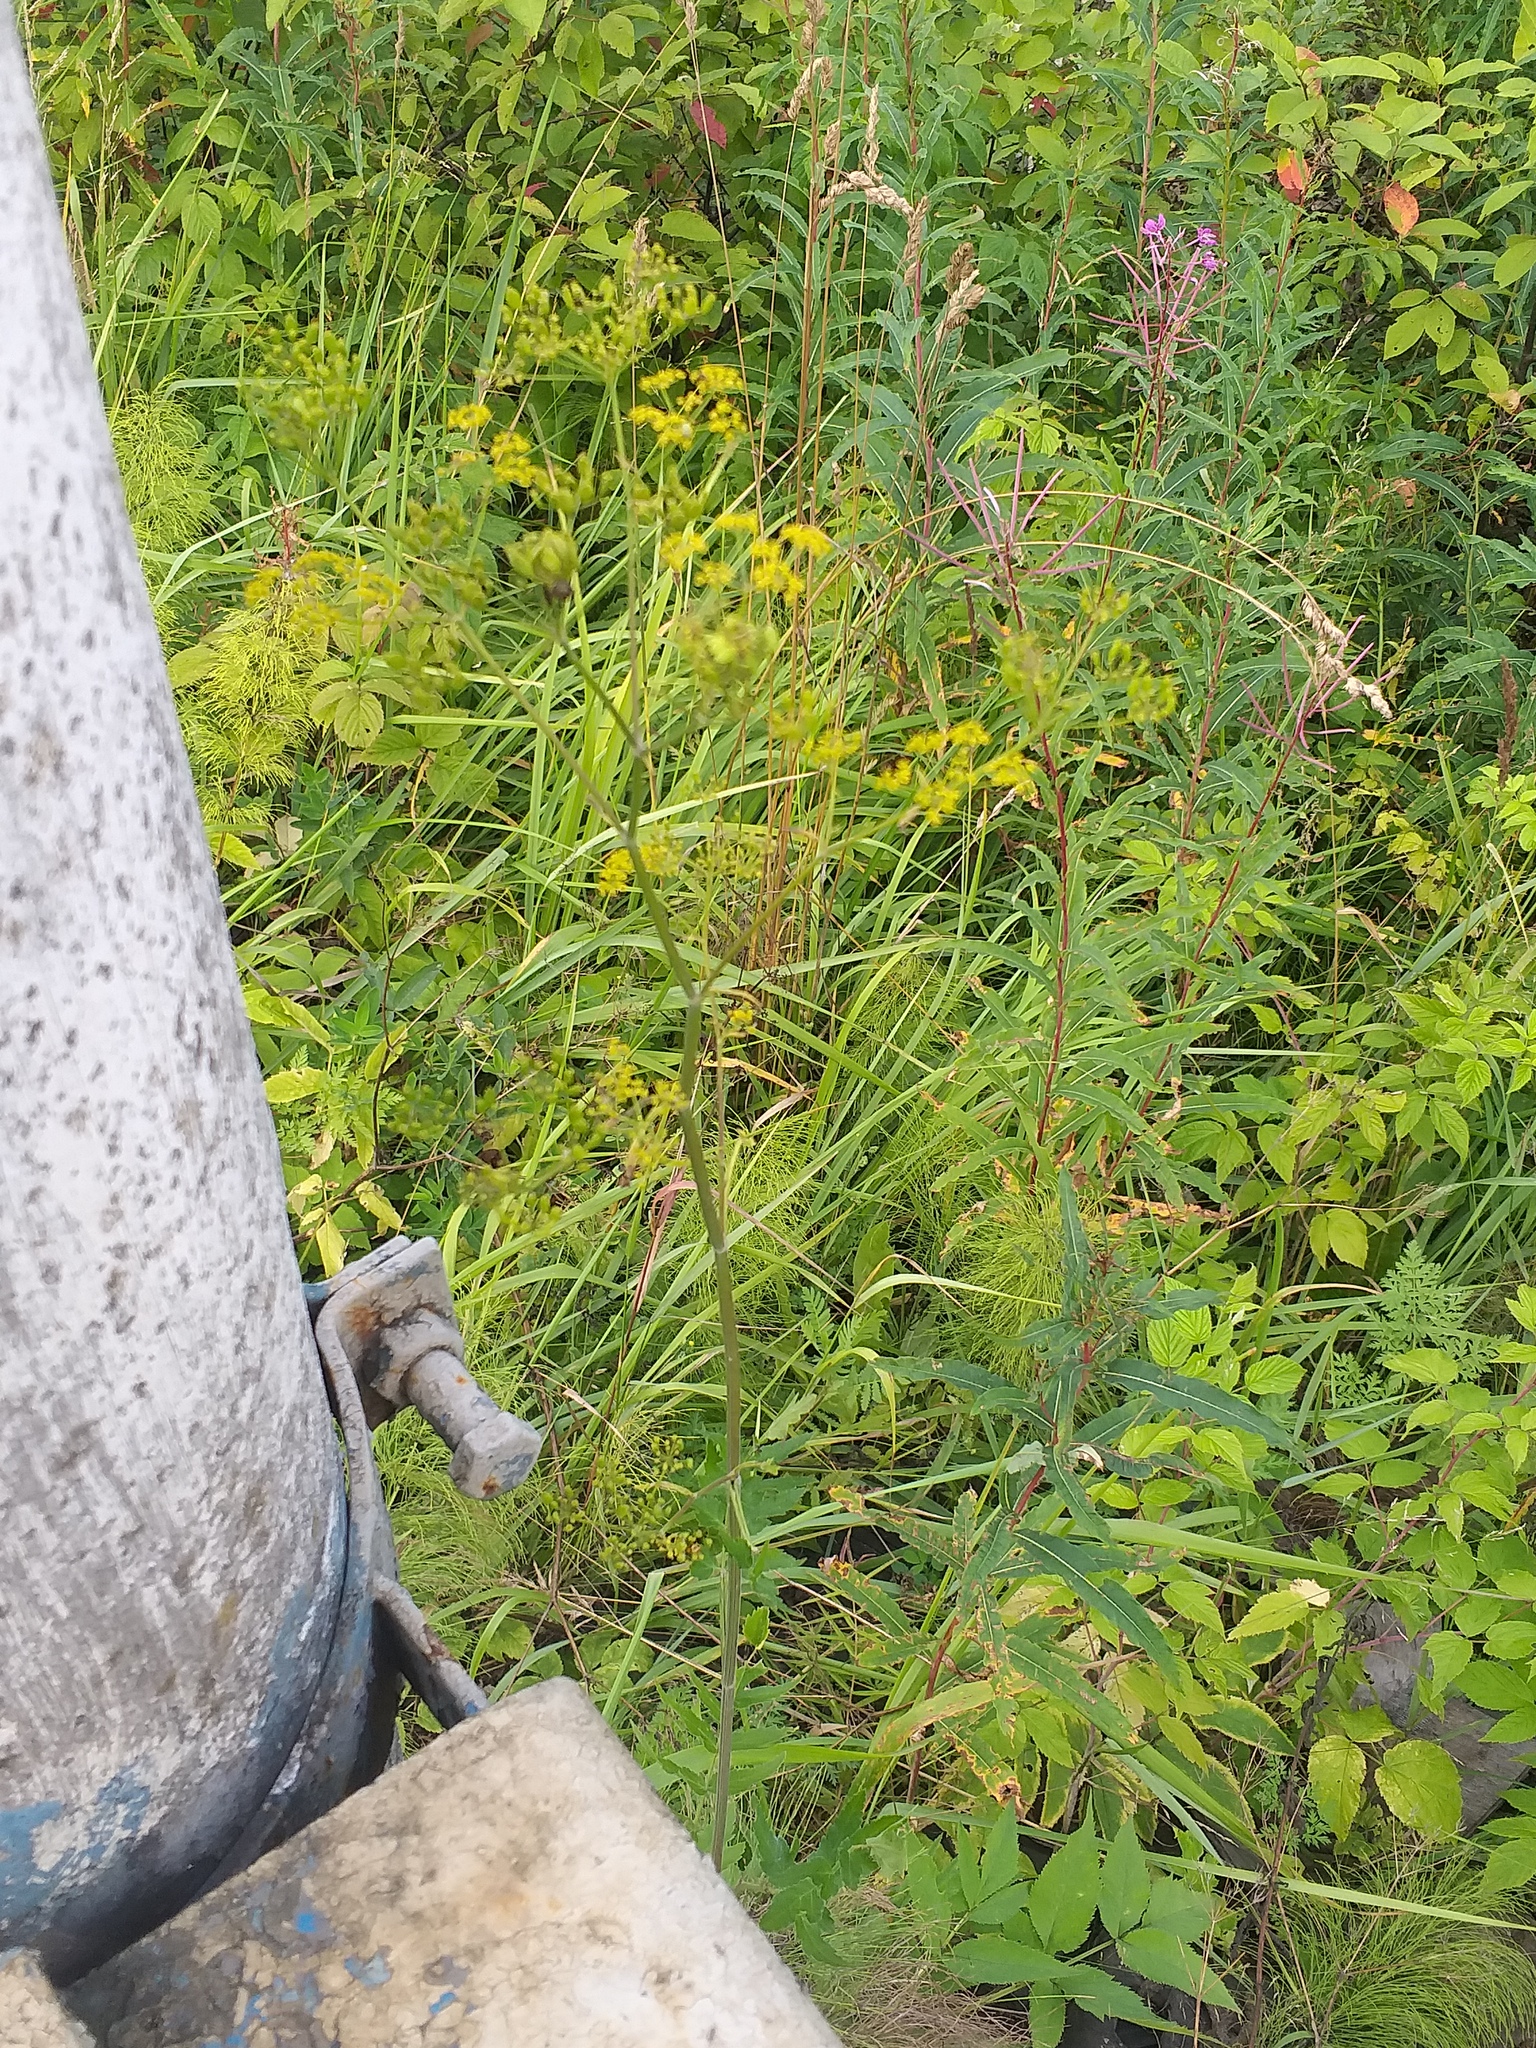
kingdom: Plantae
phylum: Tracheophyta
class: Magnoliopsida
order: Apiales
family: Apiaceae
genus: Pastinaca
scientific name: Pastinaca sativa
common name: Wild parsnip
